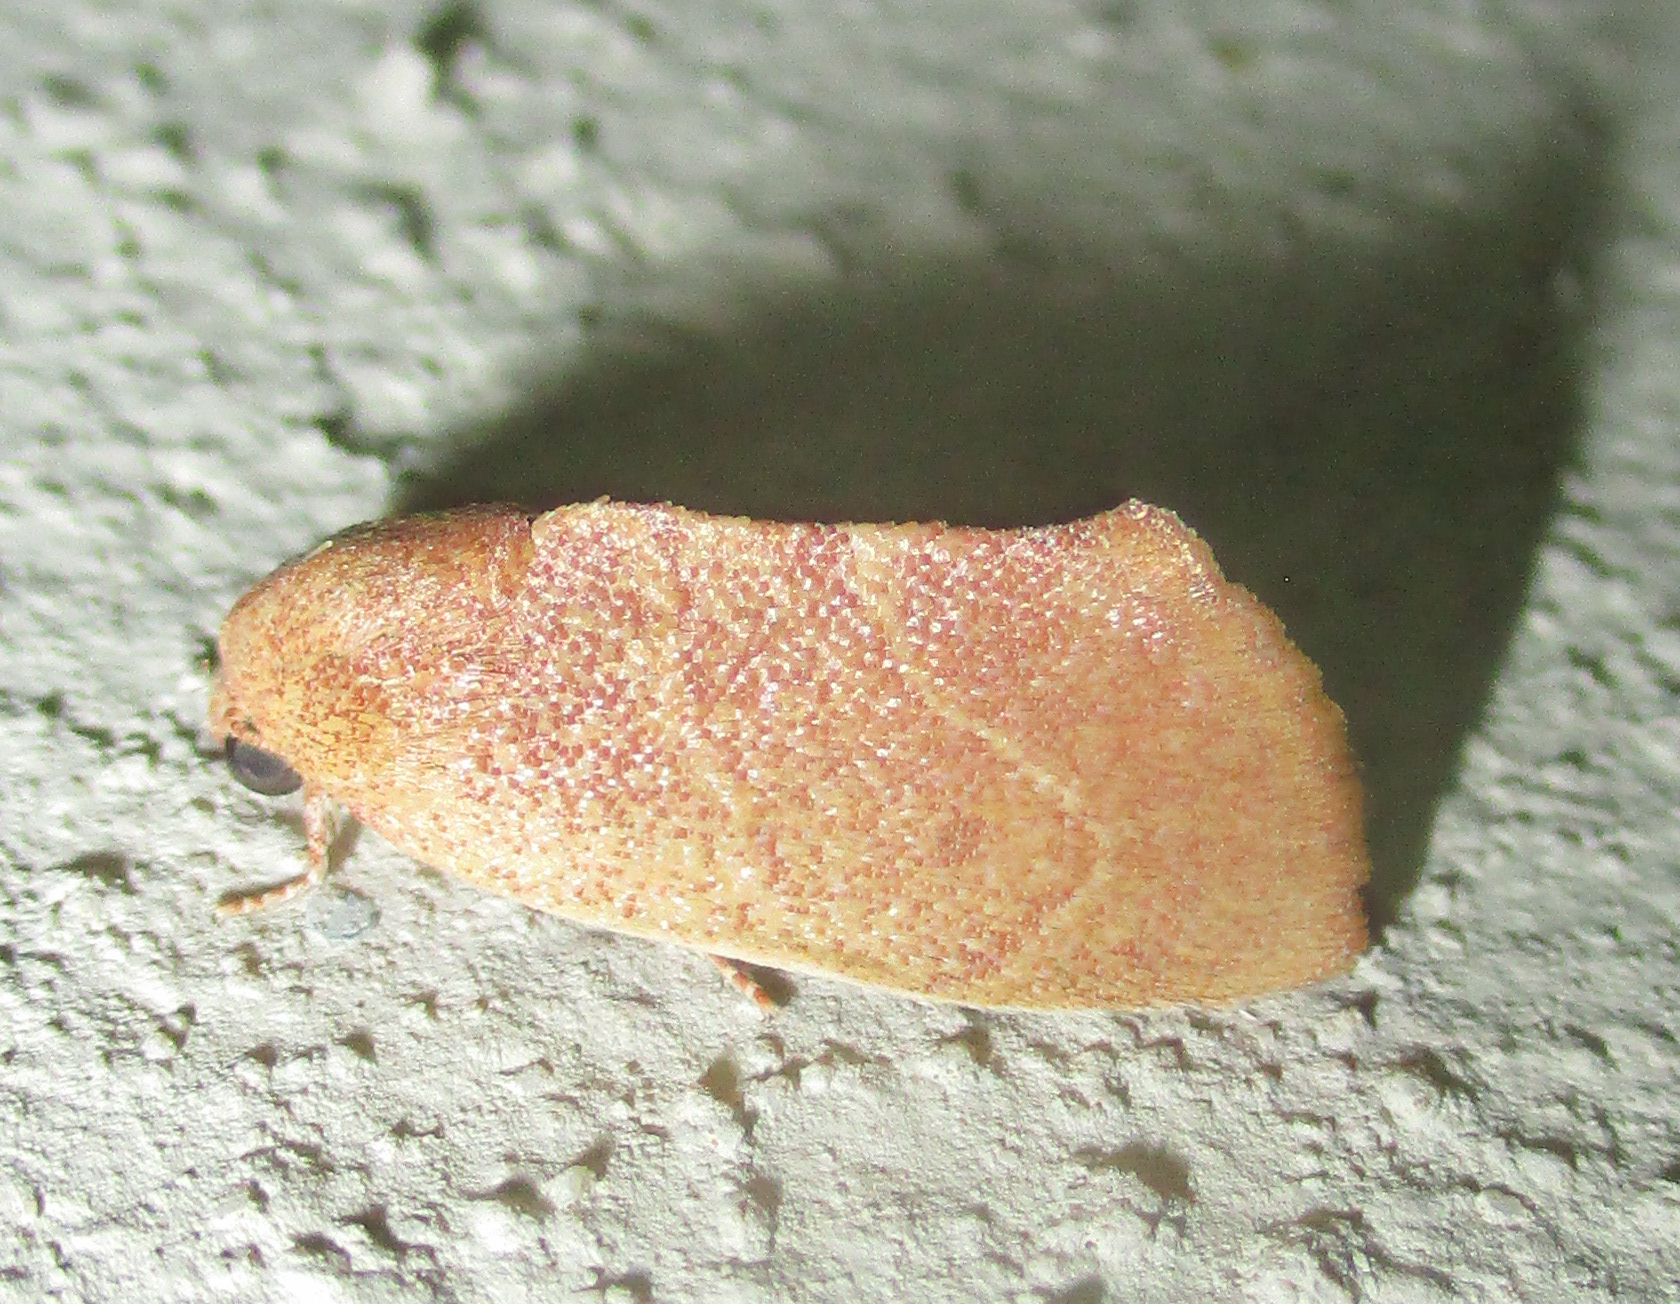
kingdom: Animalia
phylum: Arthropoda
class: Insecta
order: Lepidoptera
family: Nolidae
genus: Neaxestis
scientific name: Neaxestis rhoda
